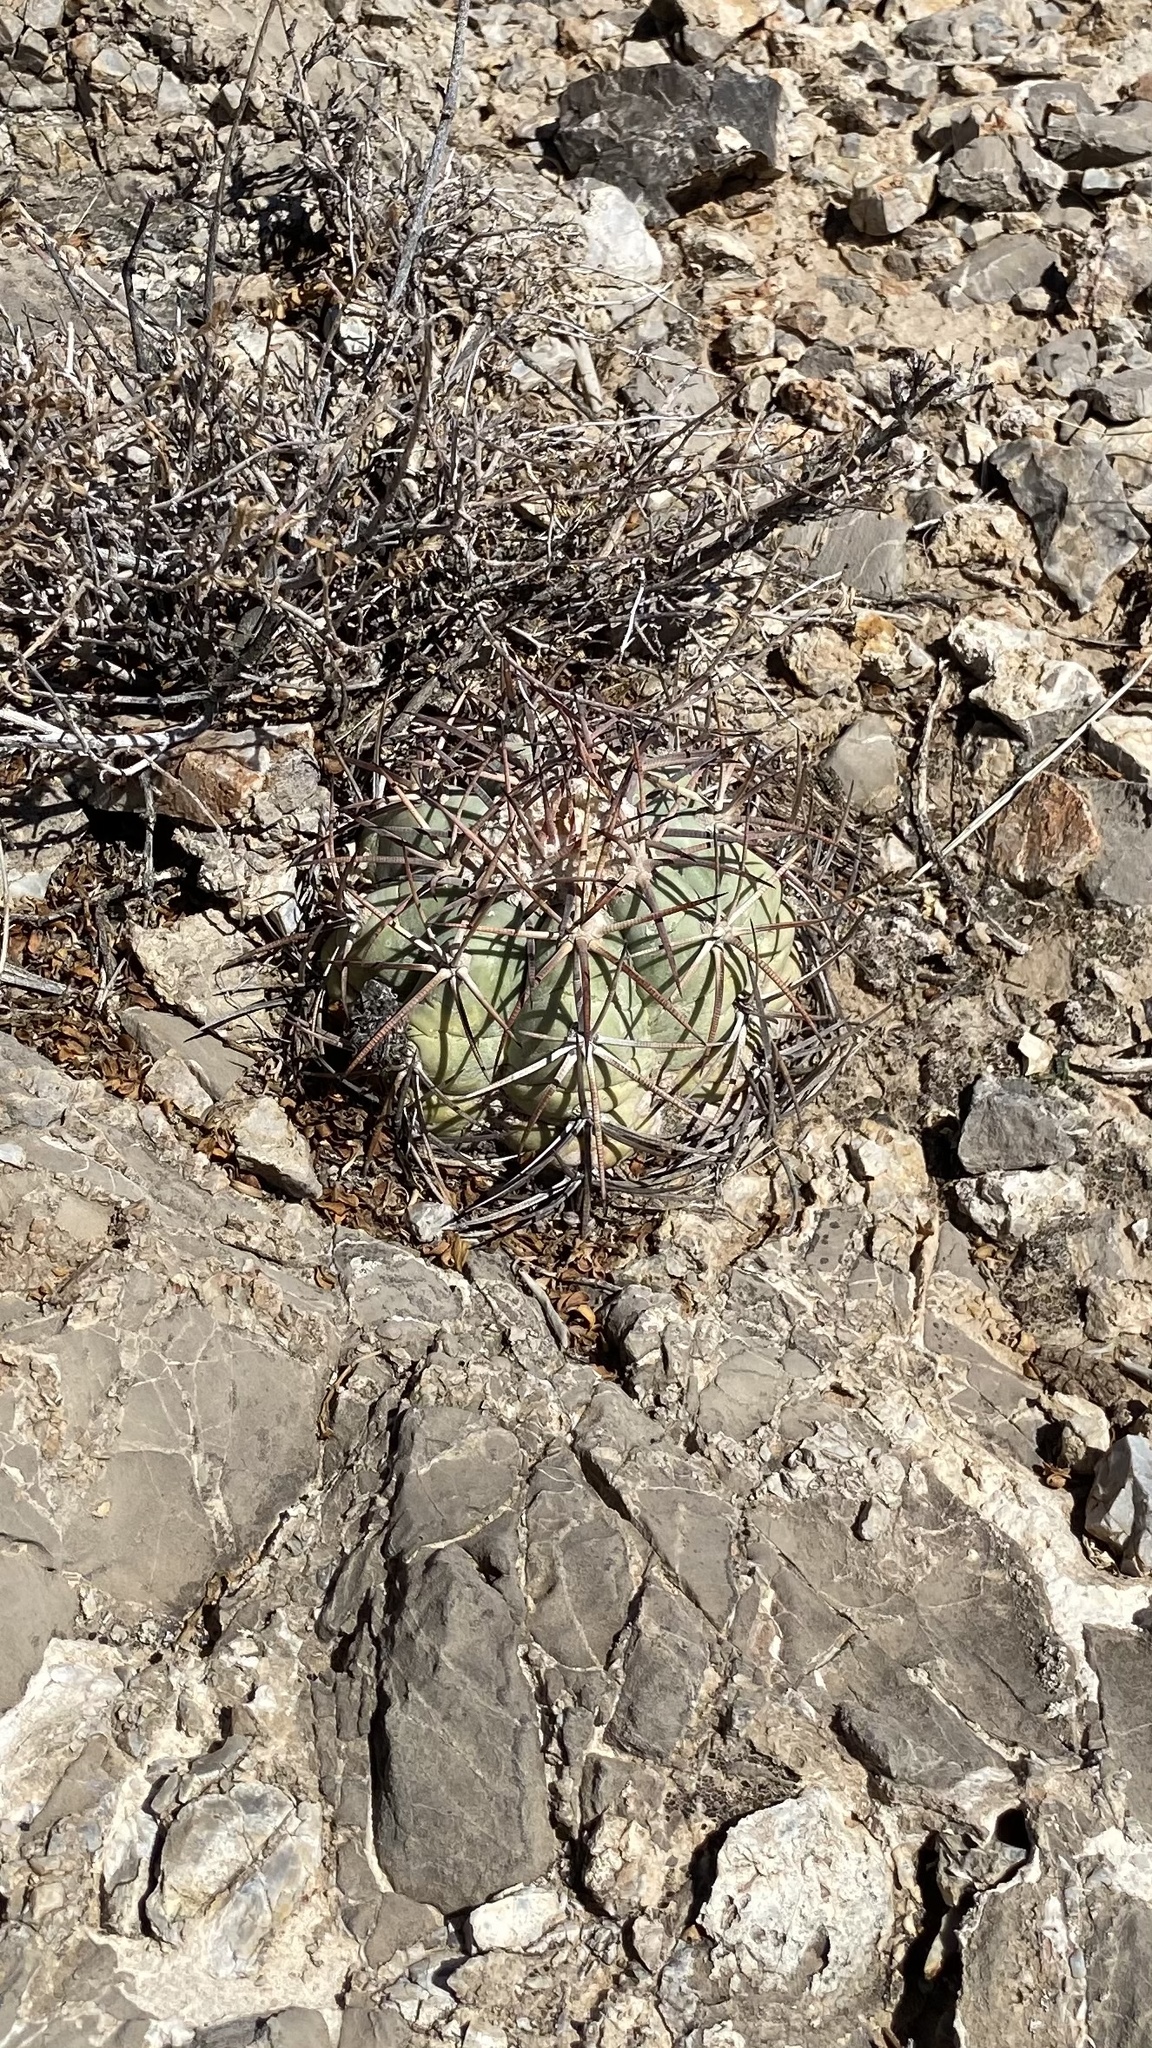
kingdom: Plantae
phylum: Tracheophyta
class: Magnoliopsida
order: Caryophyllales
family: Cactaceae
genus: Echinocactus
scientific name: Echinocactus horizonthalonius
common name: Devilshead
